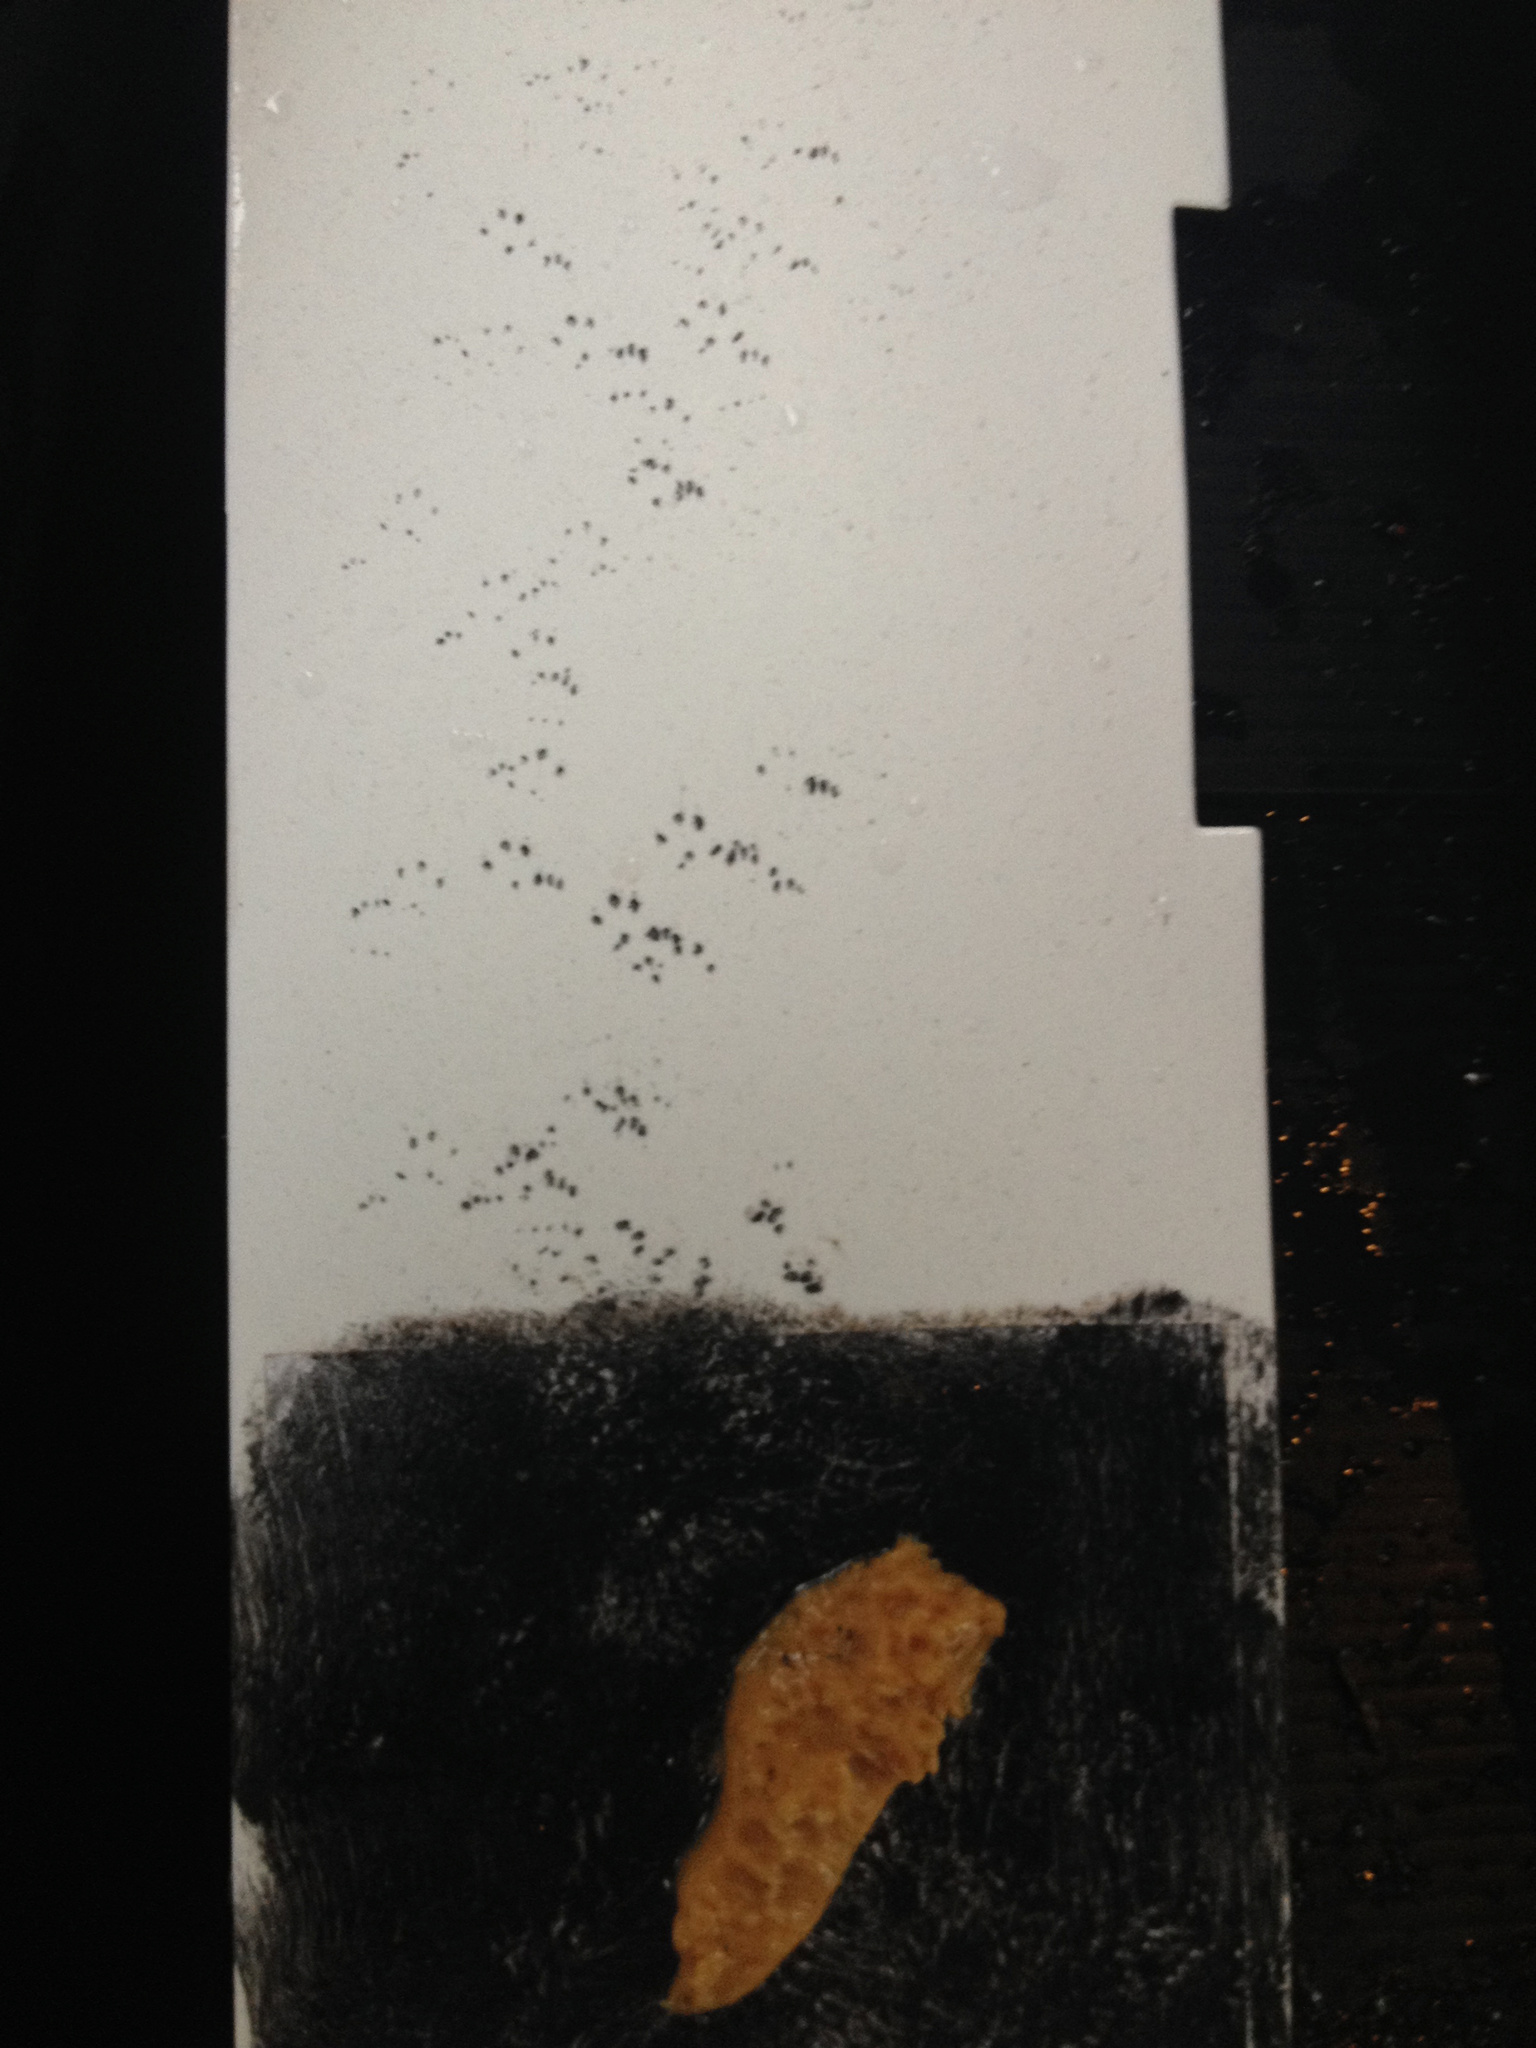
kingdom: Animalia
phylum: Chordata
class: Mammalia
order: Rodentia
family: Muridae
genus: Mus
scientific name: Mus musculus
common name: House mouse
